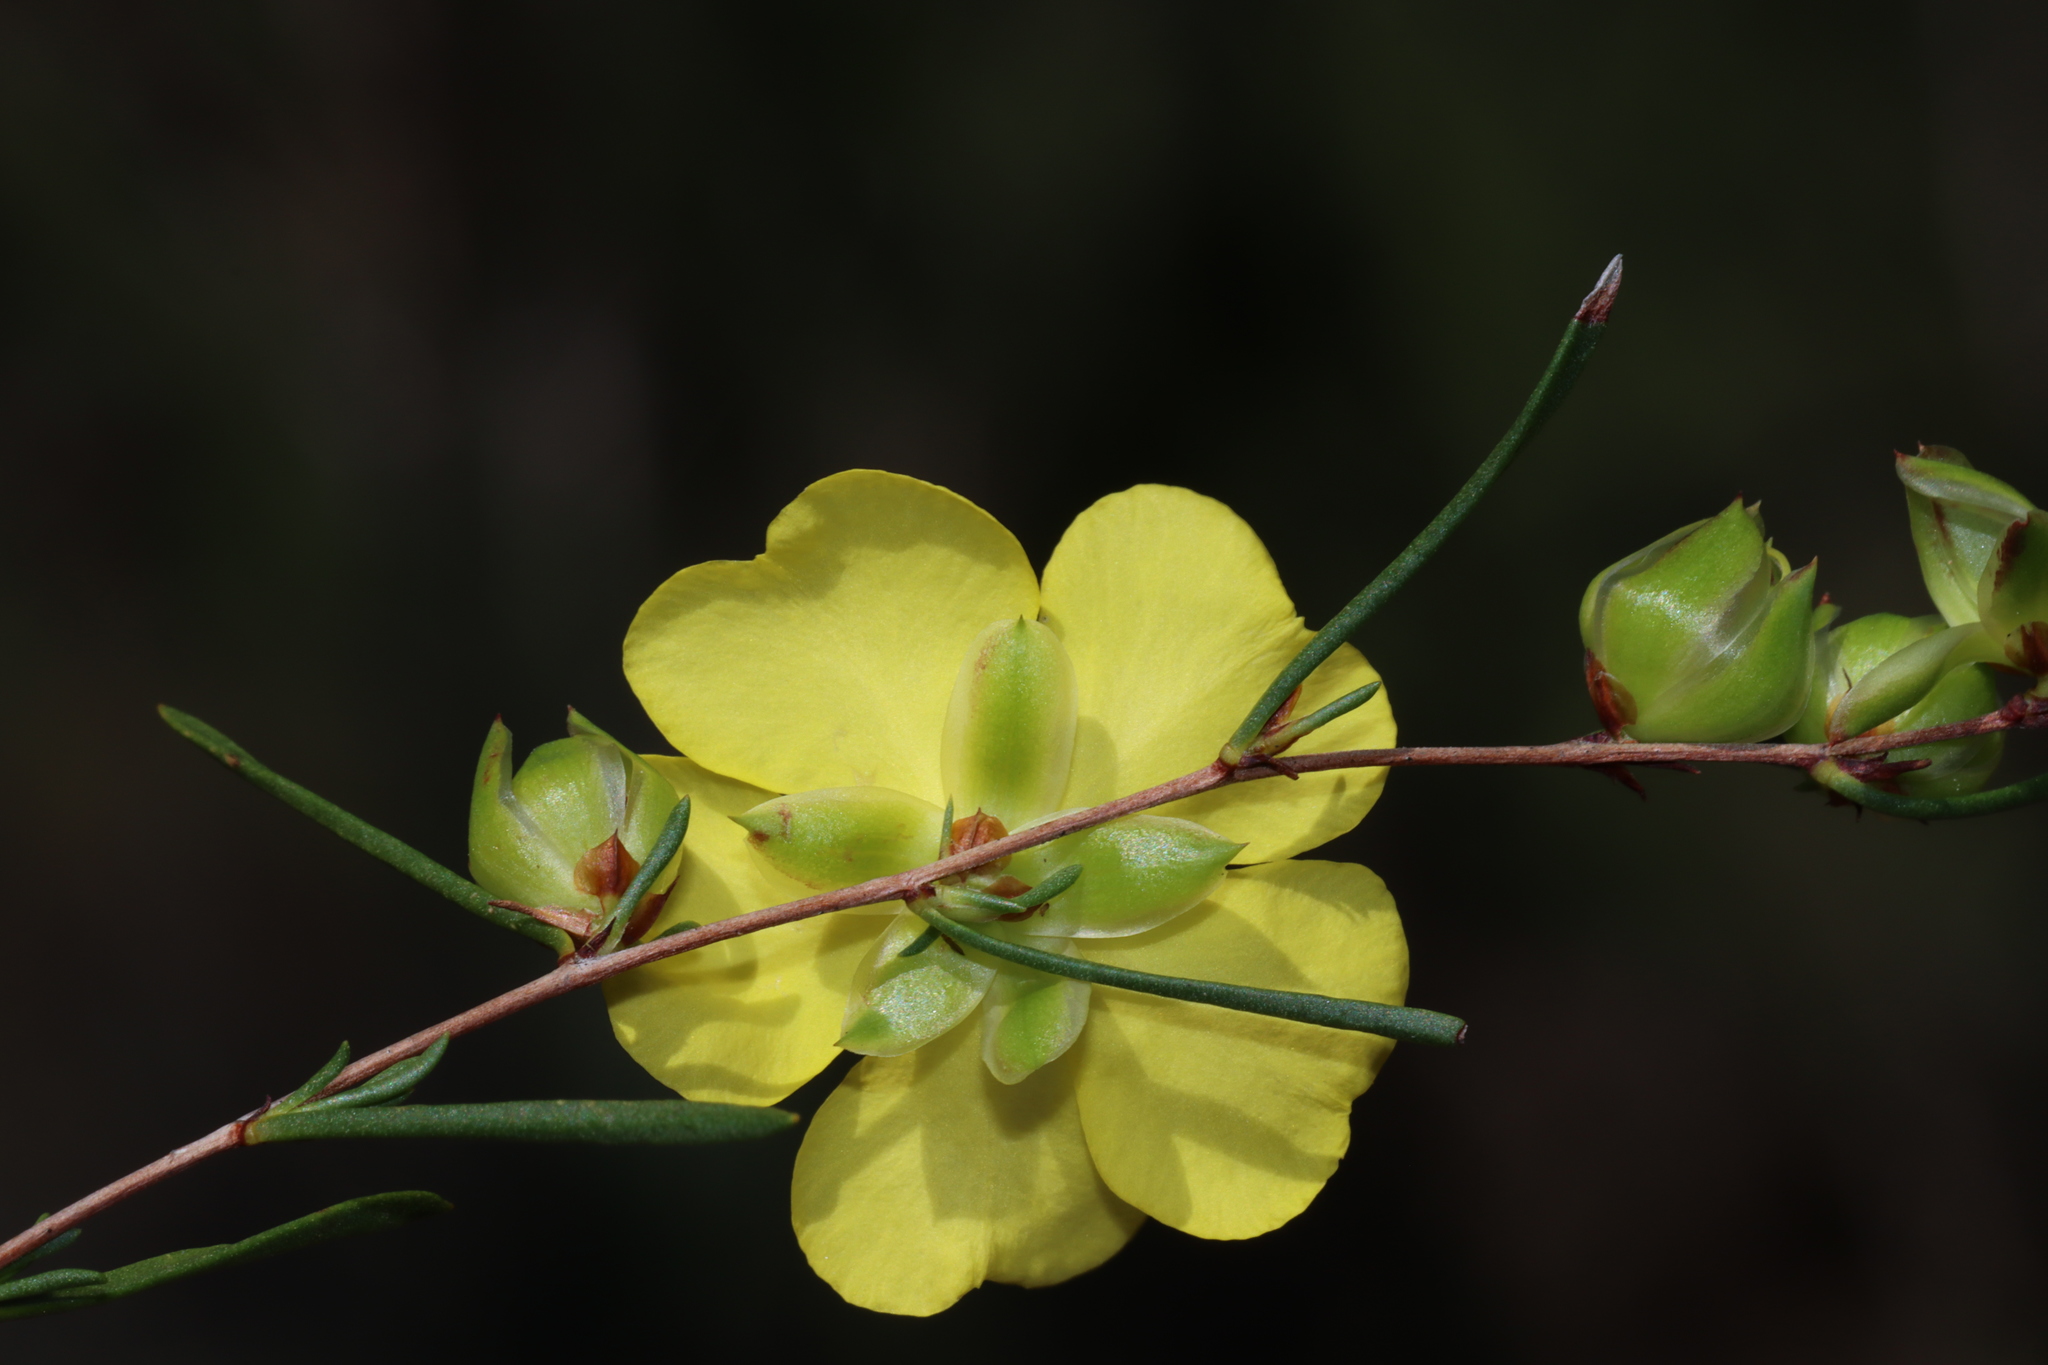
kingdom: Plantae
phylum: Tracheophyta
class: Magnoliopsida
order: Dilleniales
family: Dilleniaceae
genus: Hibbertia
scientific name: Hibbertia virgata
